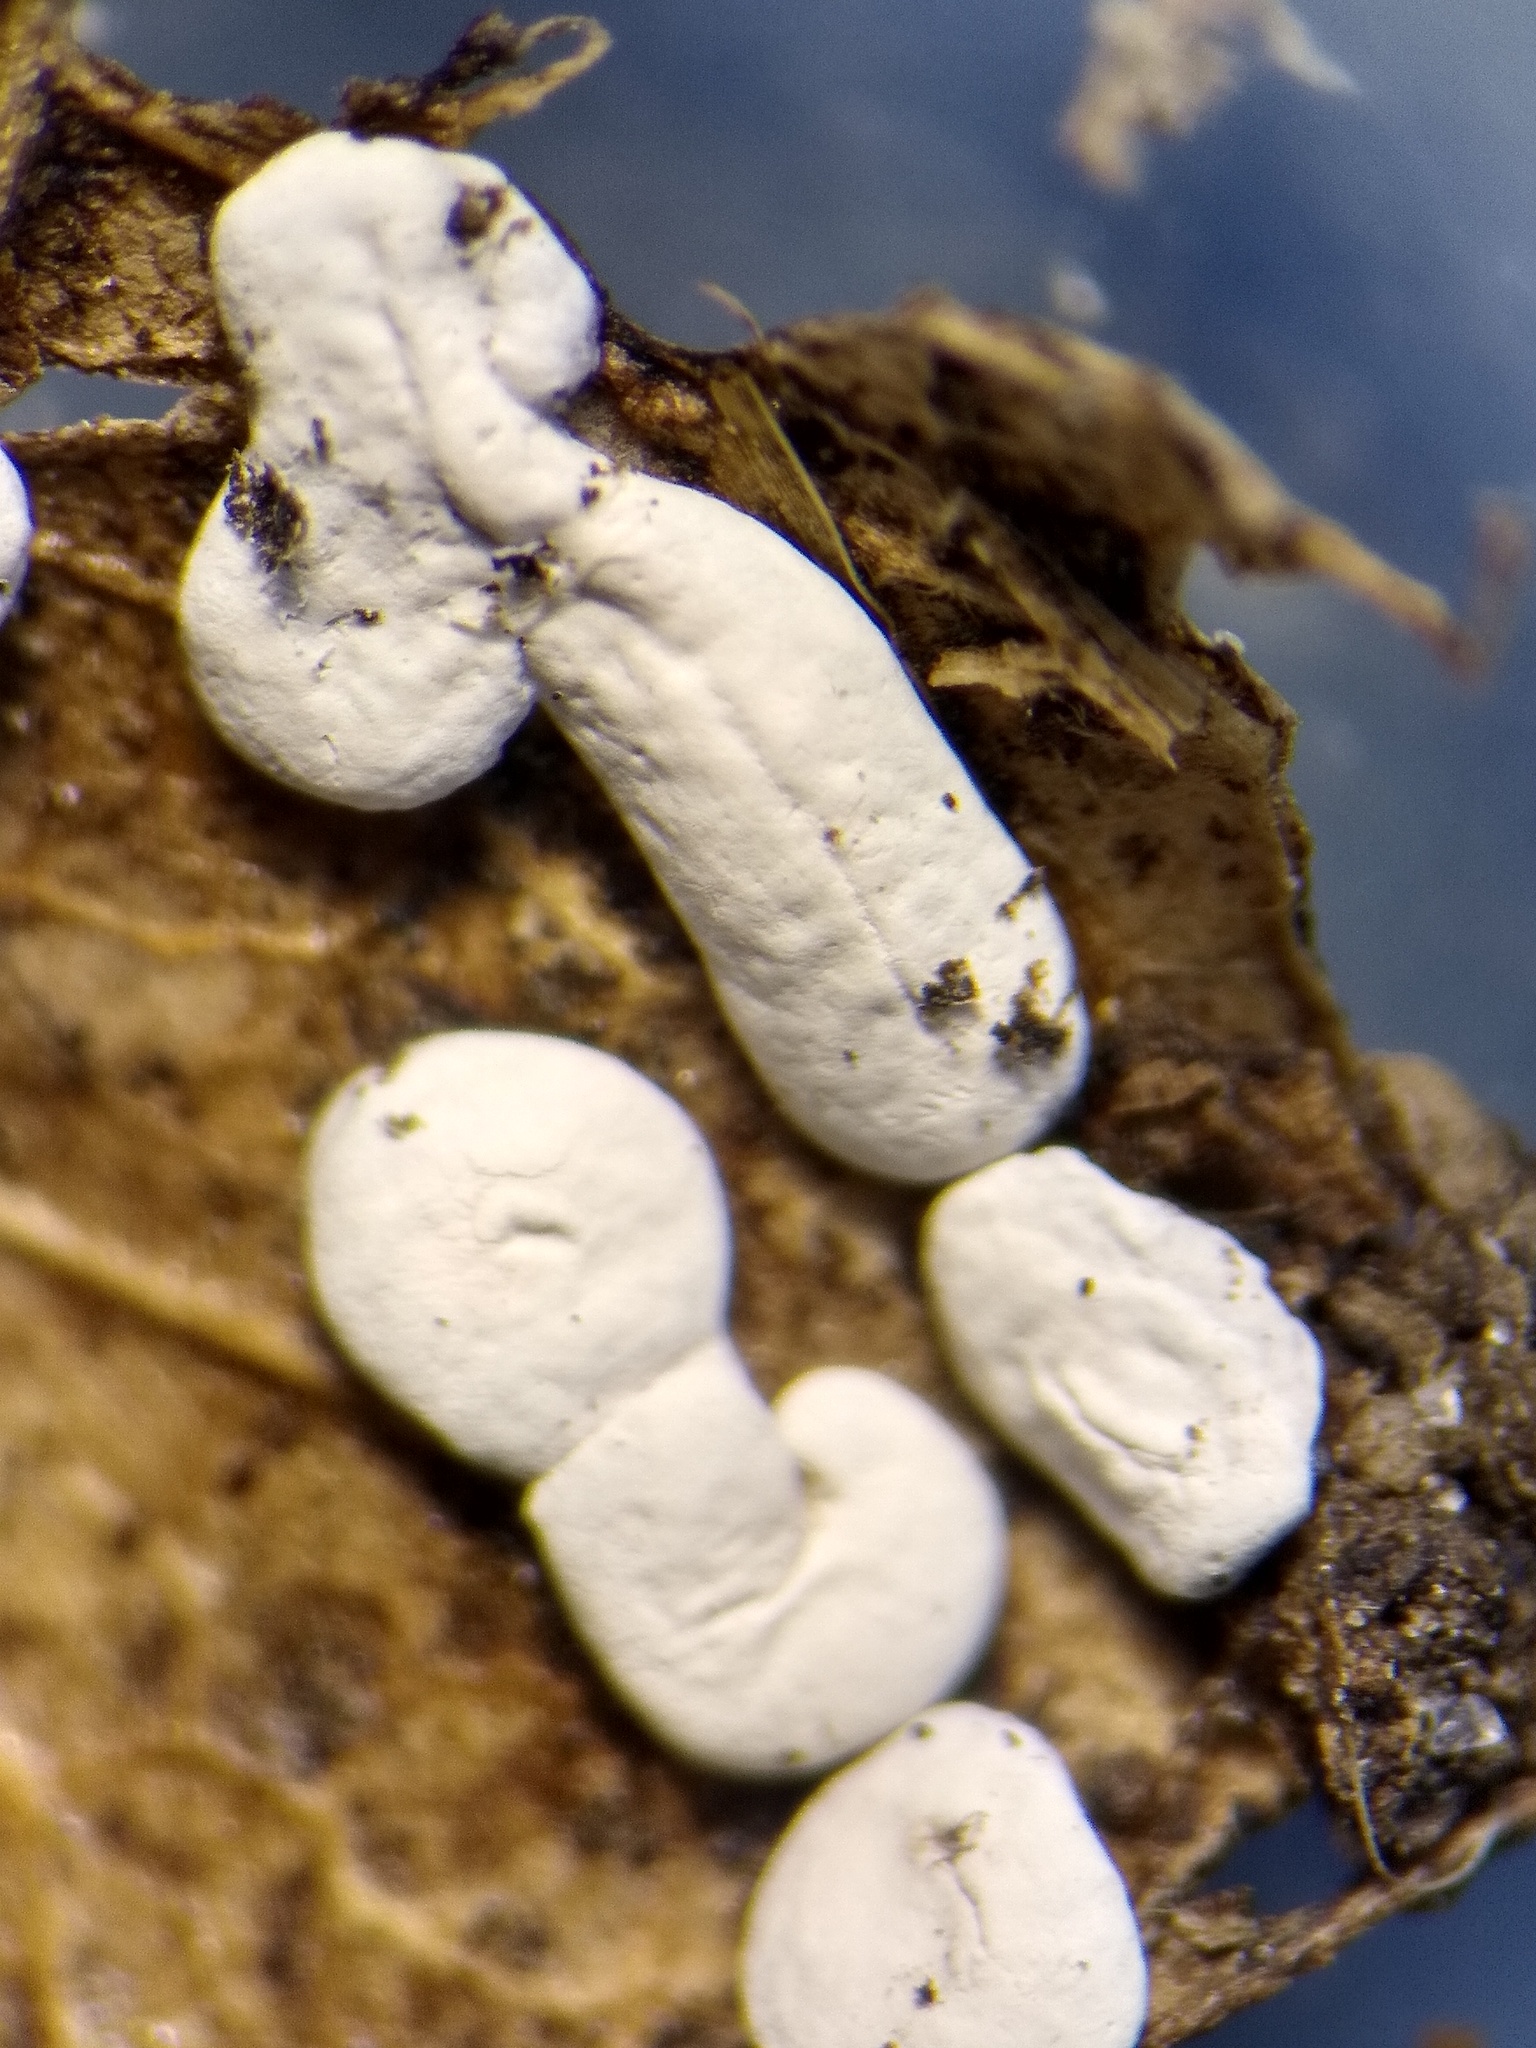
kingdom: Protozoa
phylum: Mycetozoa
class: Myxomycetes
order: Physarales
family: Didymiaceae
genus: Diderma
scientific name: Diderma effusum
